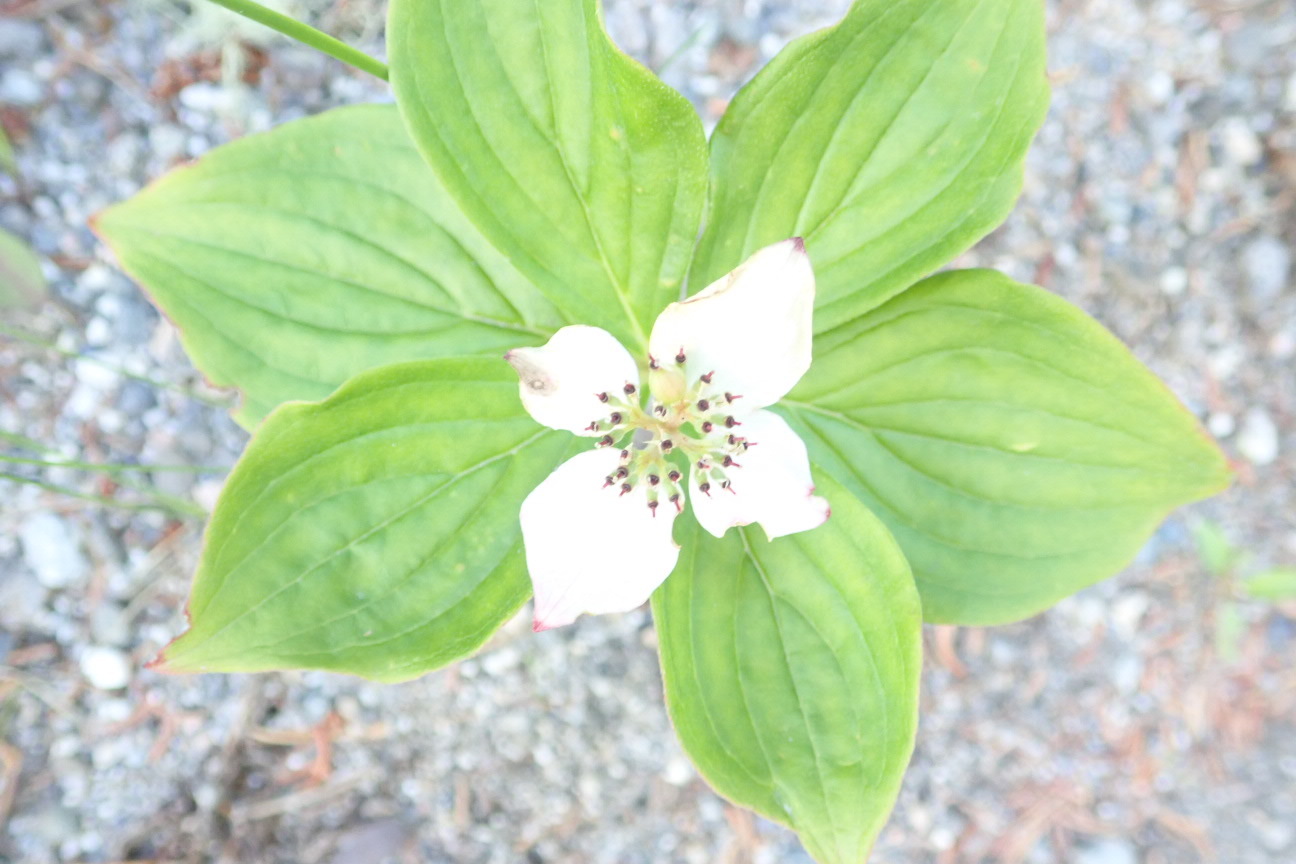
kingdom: Plantae
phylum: Tracheophyta
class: Magnoliopsida
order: Cornales
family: Cornaceae
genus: Cornus
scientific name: Cornus canadensis
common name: Creeping dogwood
